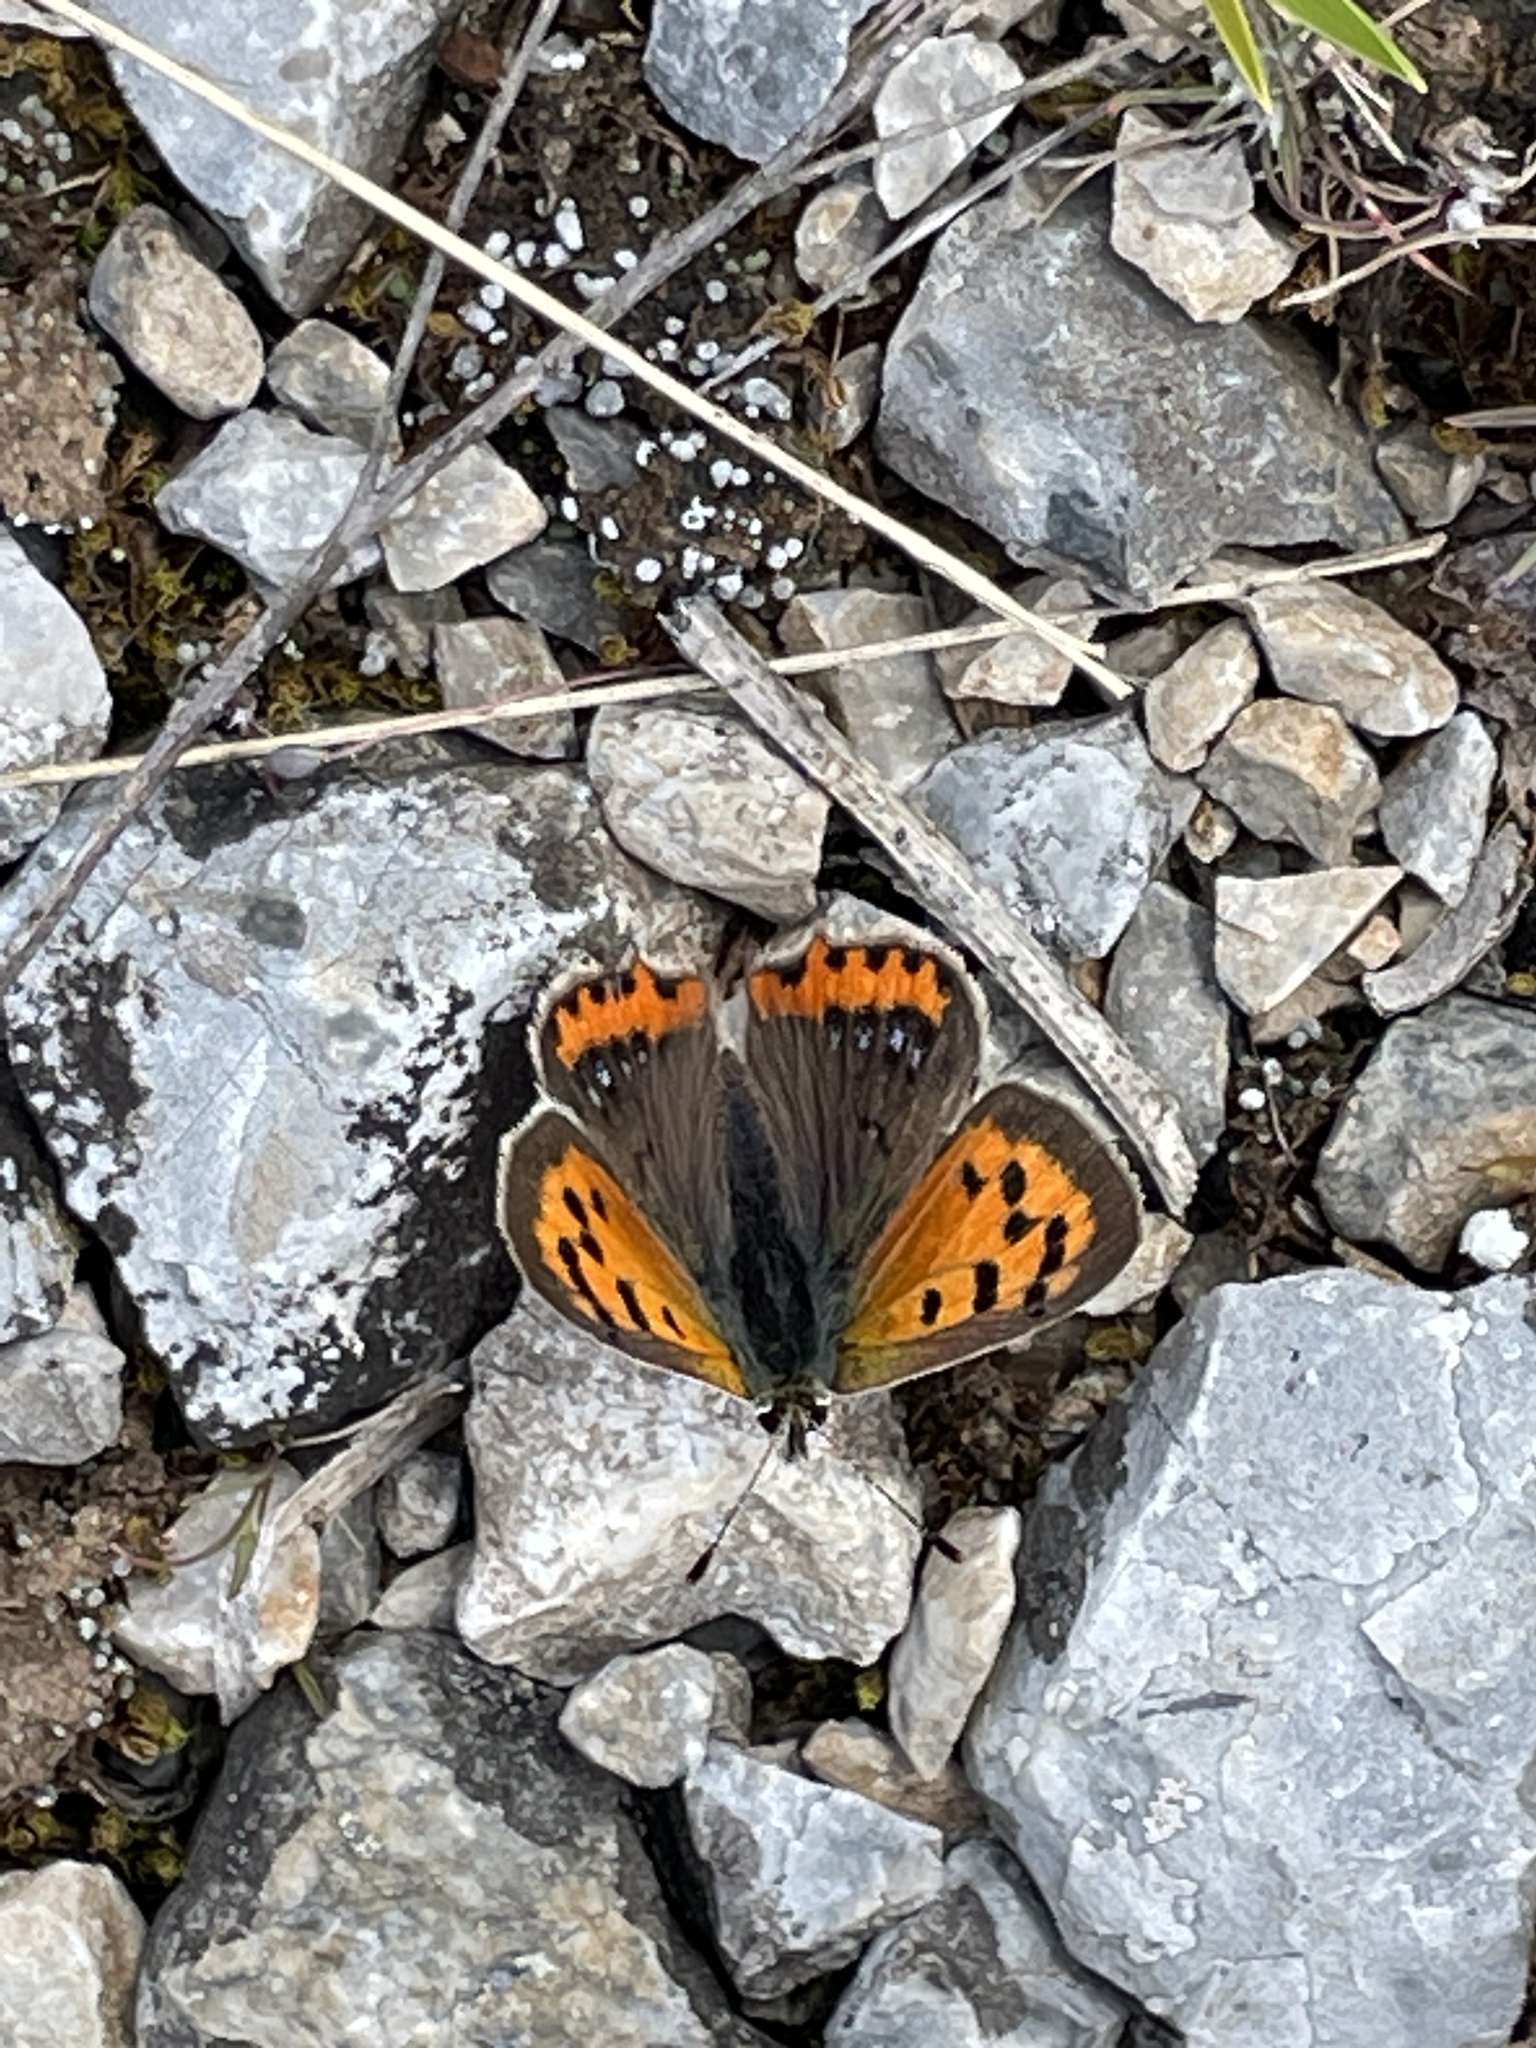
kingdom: Animalia
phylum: Arthropoda
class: Insecta
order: Lepidoptera
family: Lycaenidae
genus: Lycaena
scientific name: Lycaena phlaeas
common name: Small copper
